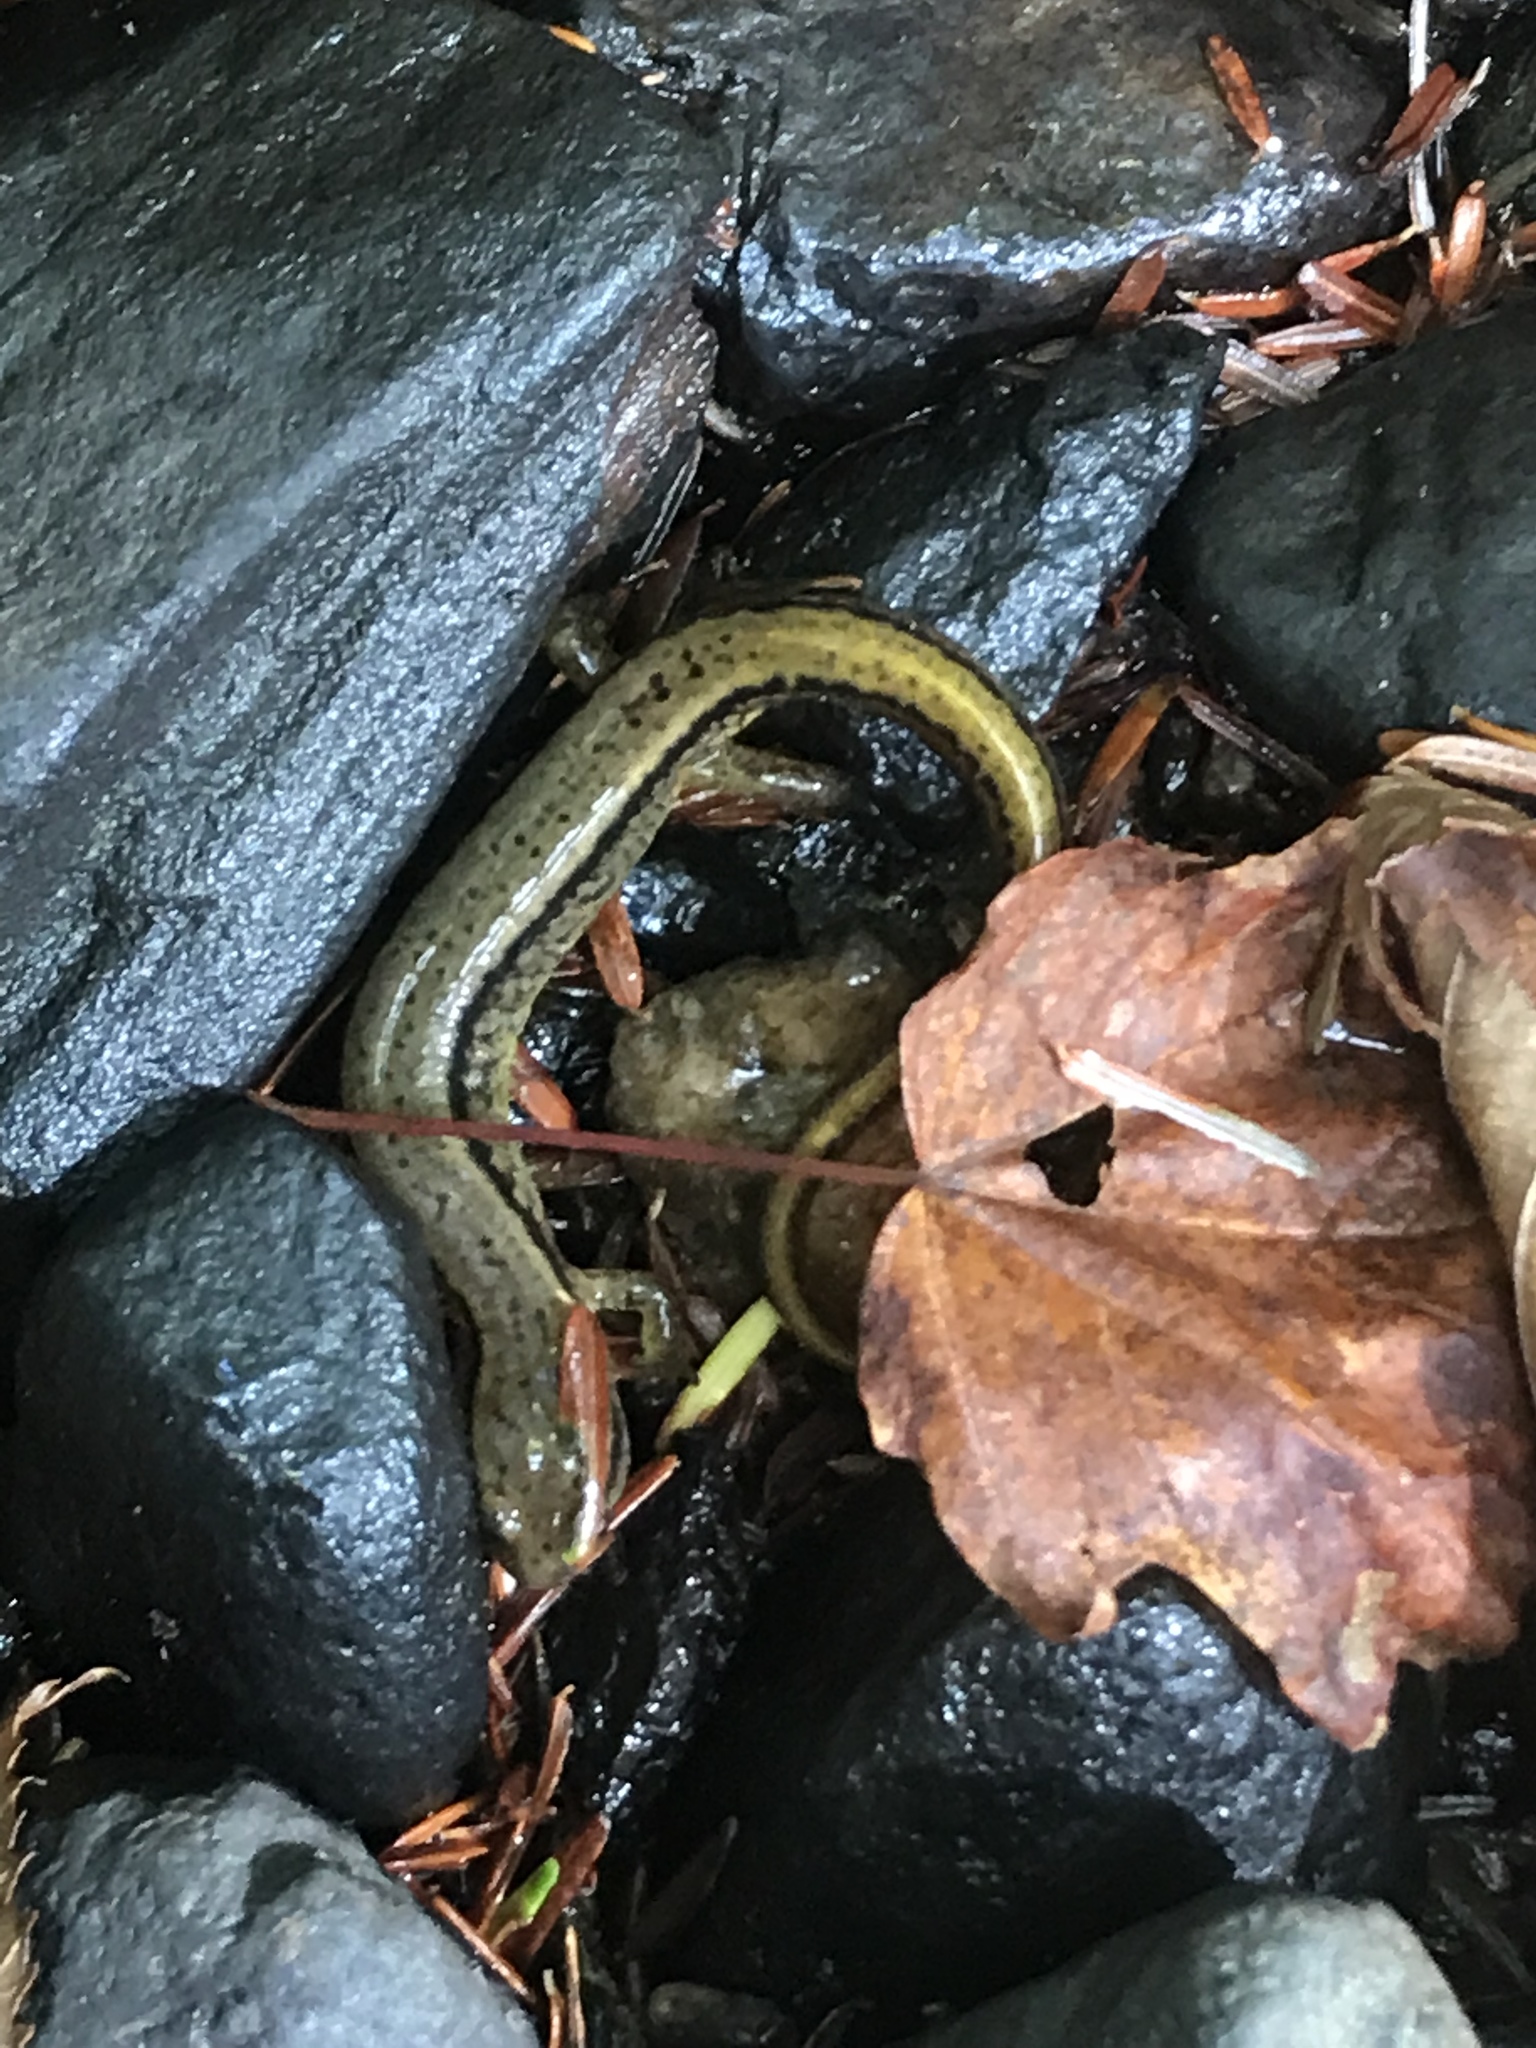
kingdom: Animalia
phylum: Chordata
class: Amphibia
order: Caudata
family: Plethodontidae
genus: Eurycea
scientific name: Eurycea bislineata
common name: Northern two-lined salamander
